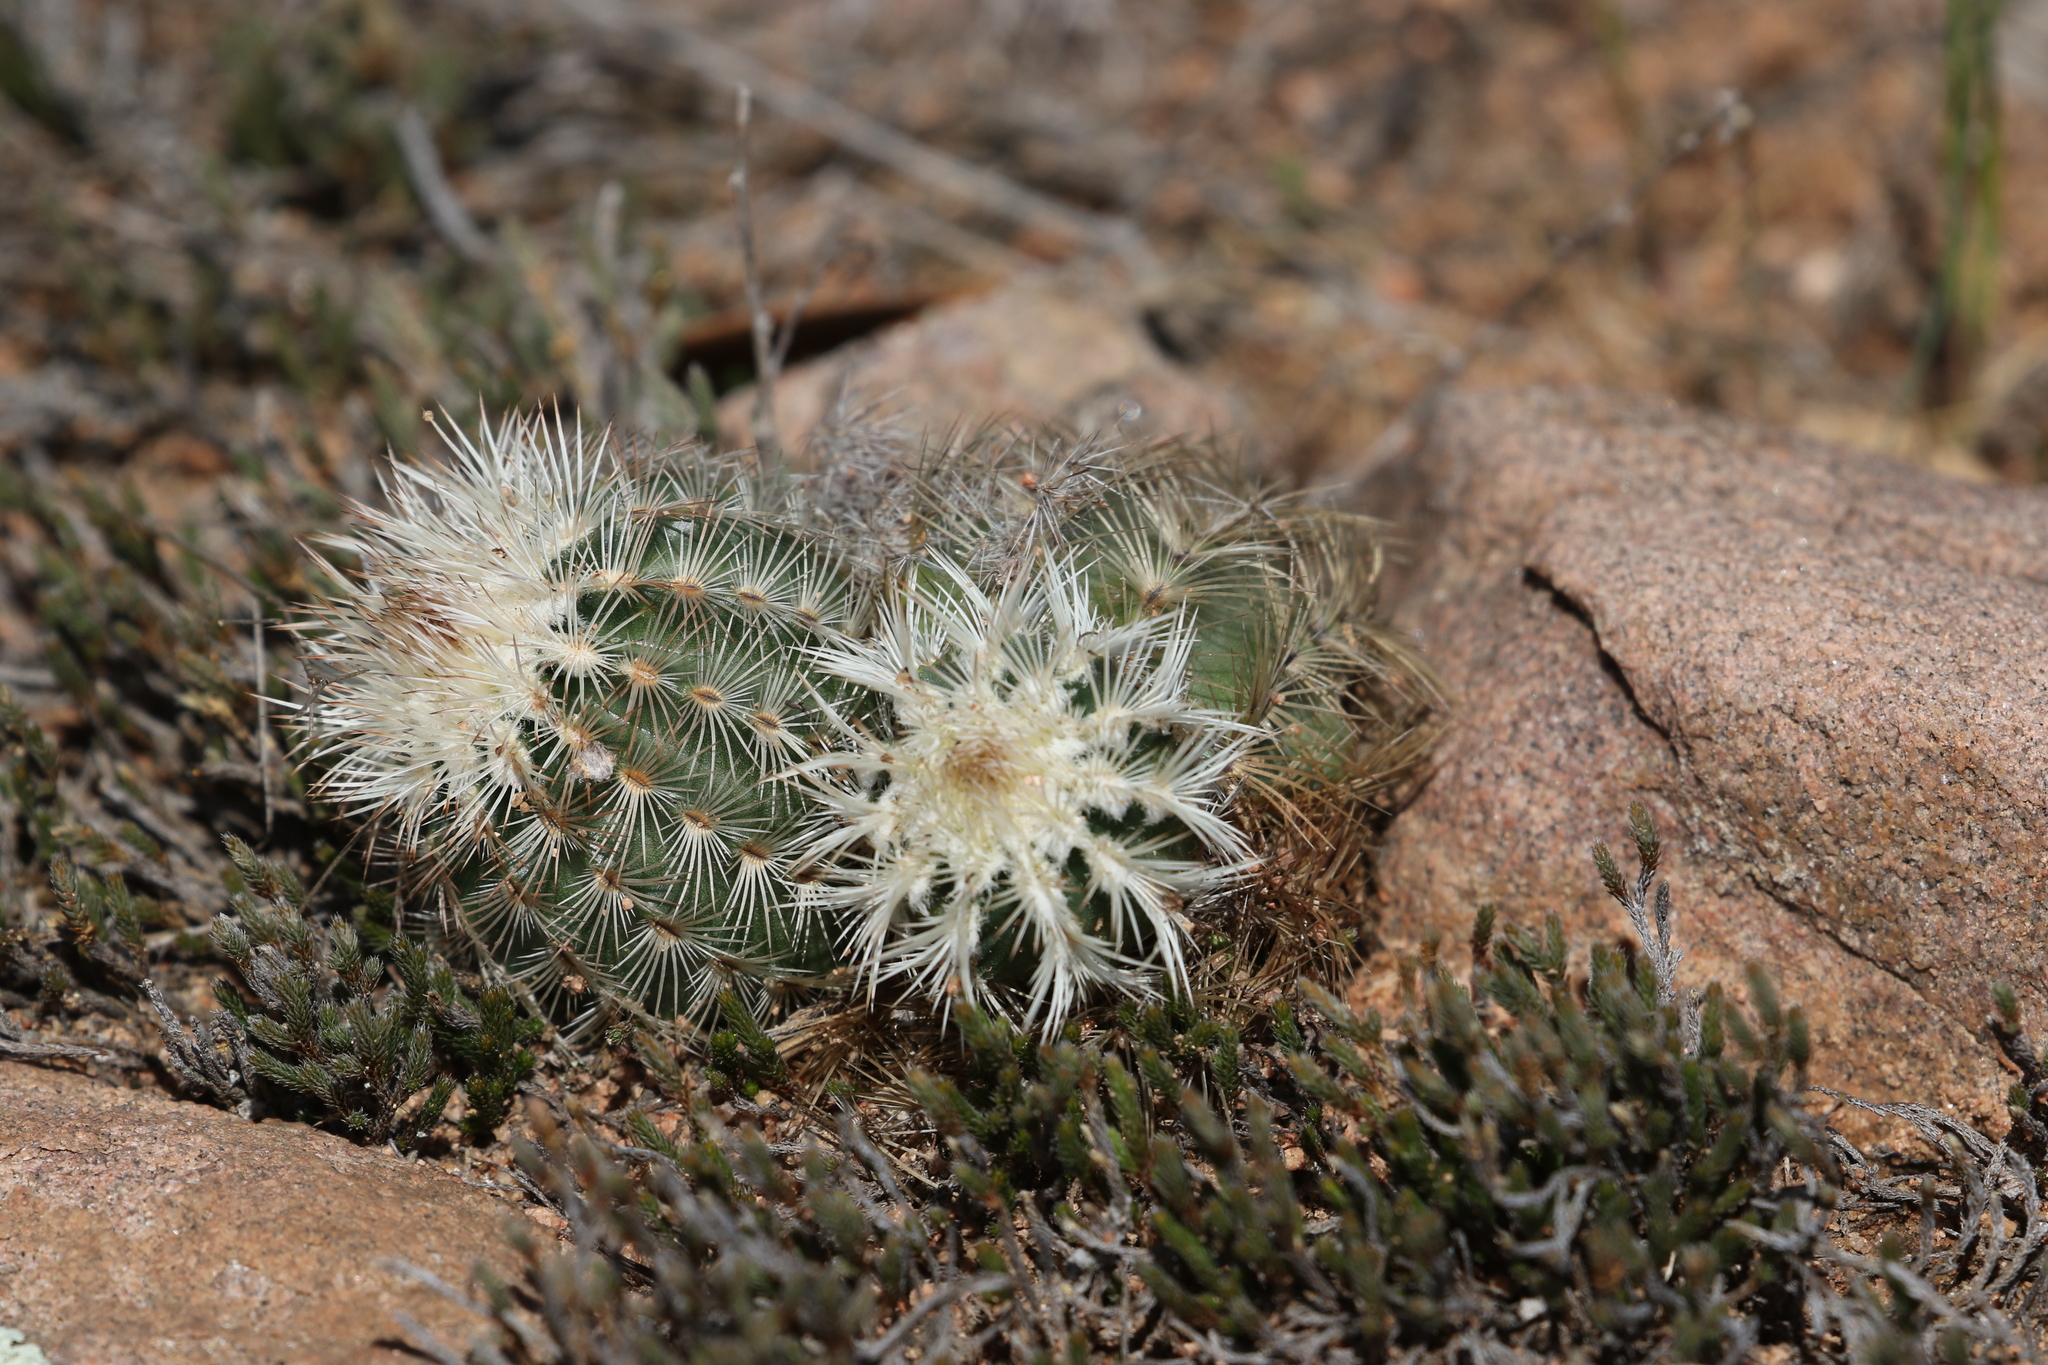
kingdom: Plantae
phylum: Tracheophyta
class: Magnoliopsida
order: Caryophyllales
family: Cactaceae
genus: Echinocereus
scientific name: Echinocereus reichenbachii
